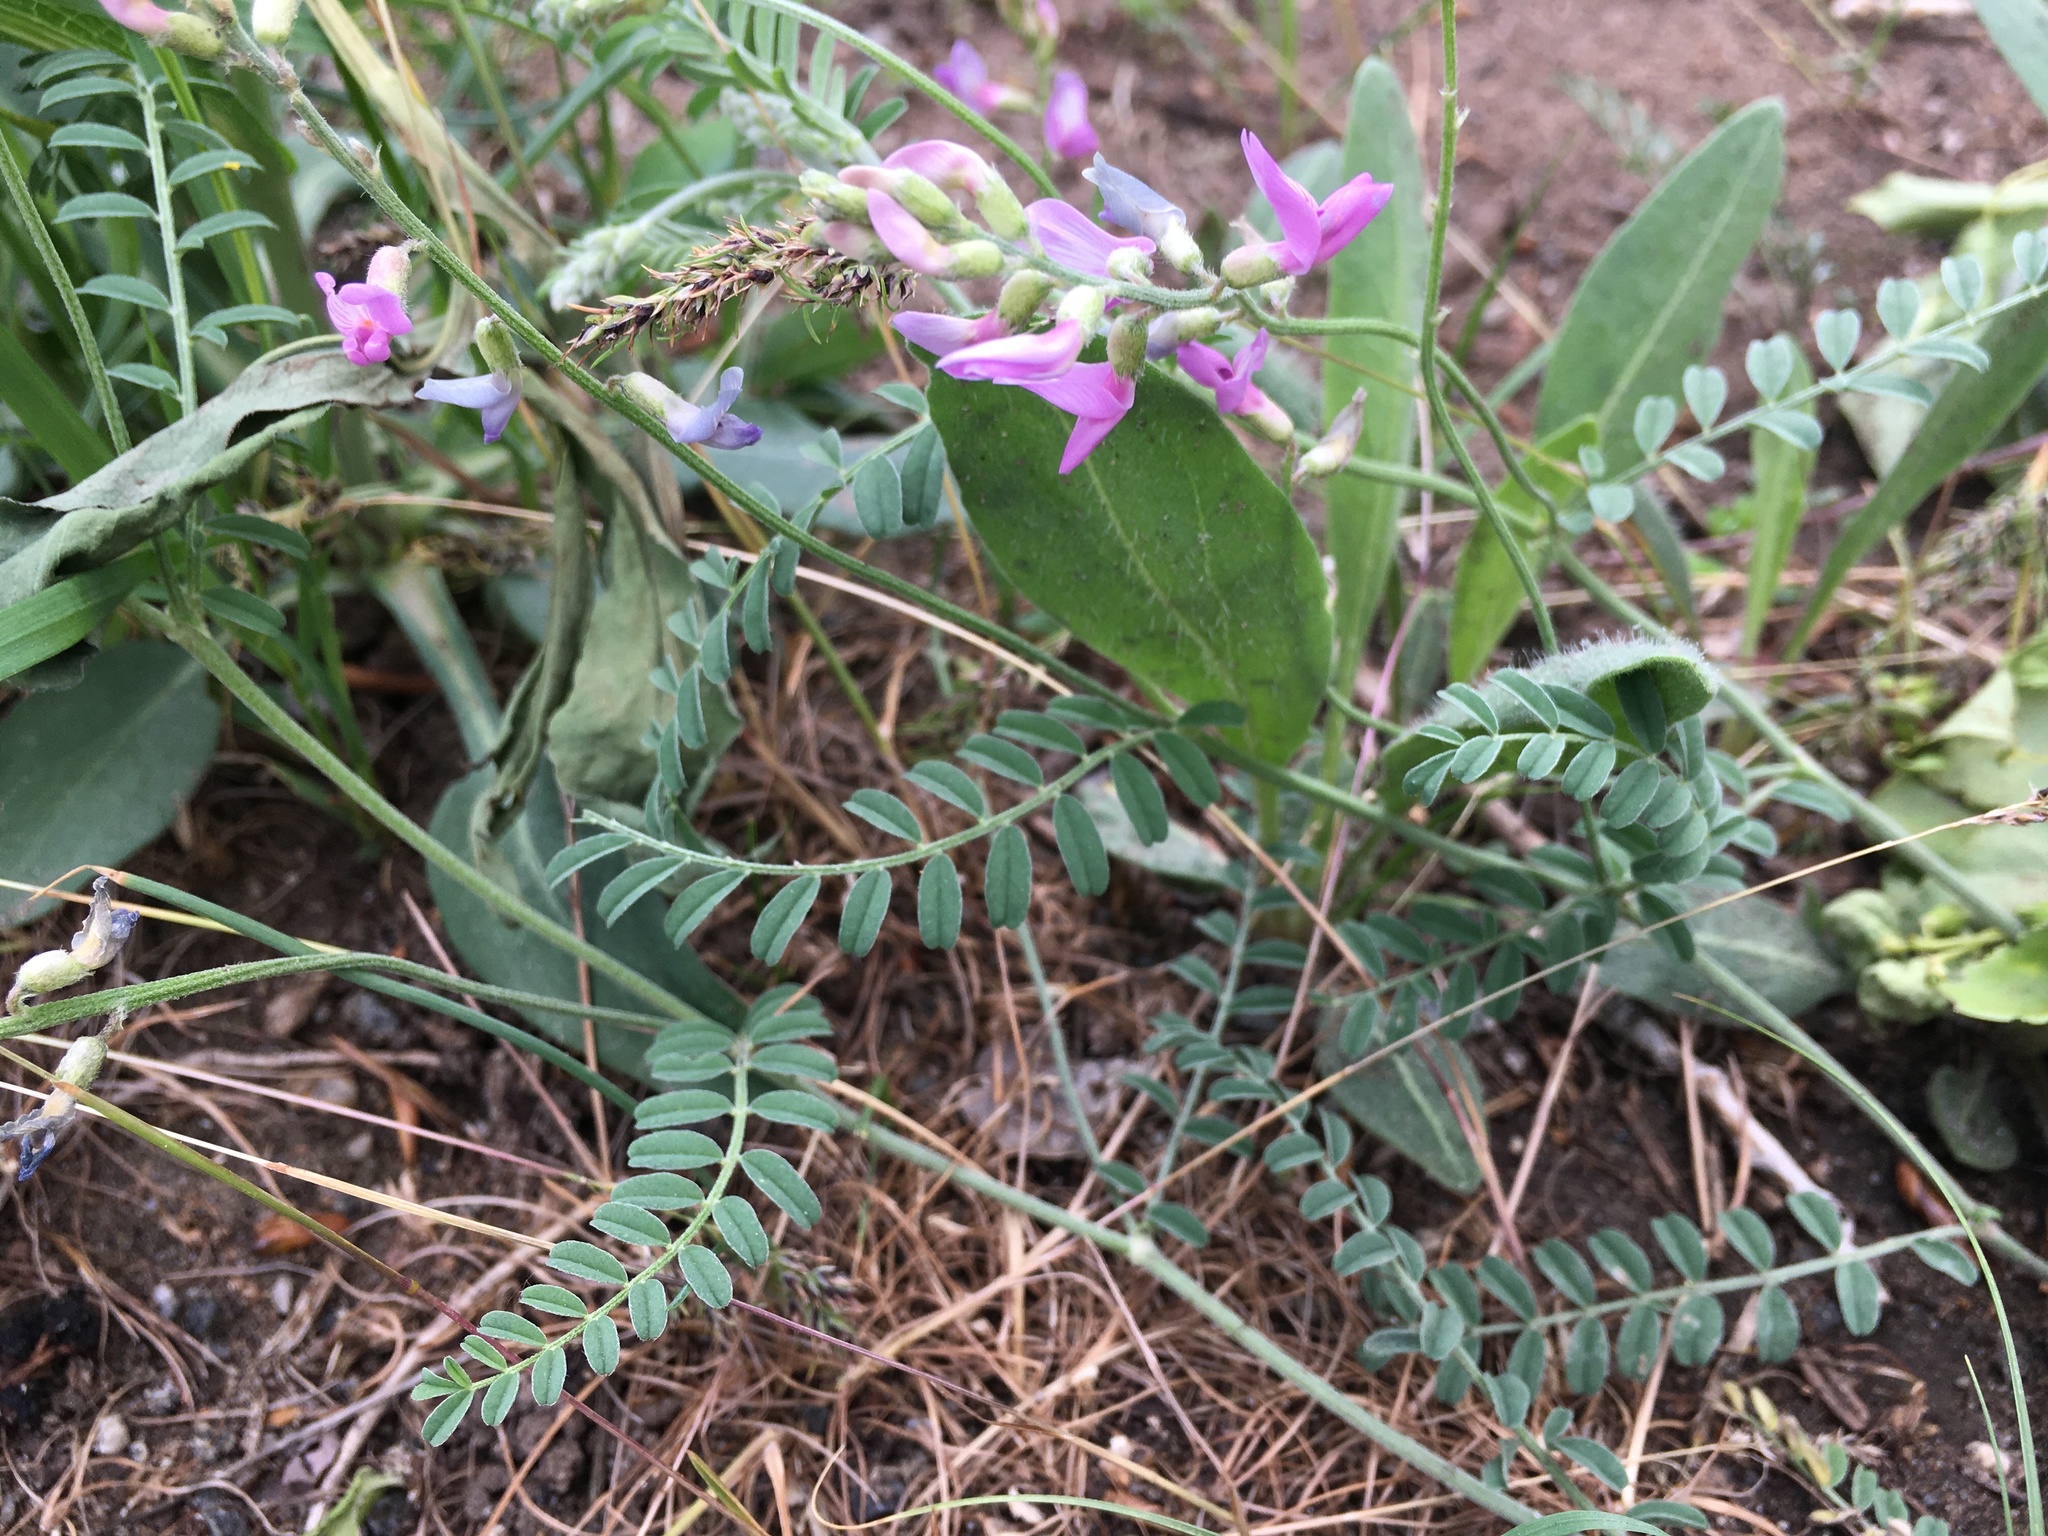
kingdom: Plantae
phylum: Tracheophyta
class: Magnoliopsida
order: Fabales
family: Fabaceae
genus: Astragalus
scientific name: Astragalus flexuosus
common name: Pliant milk-vetch
